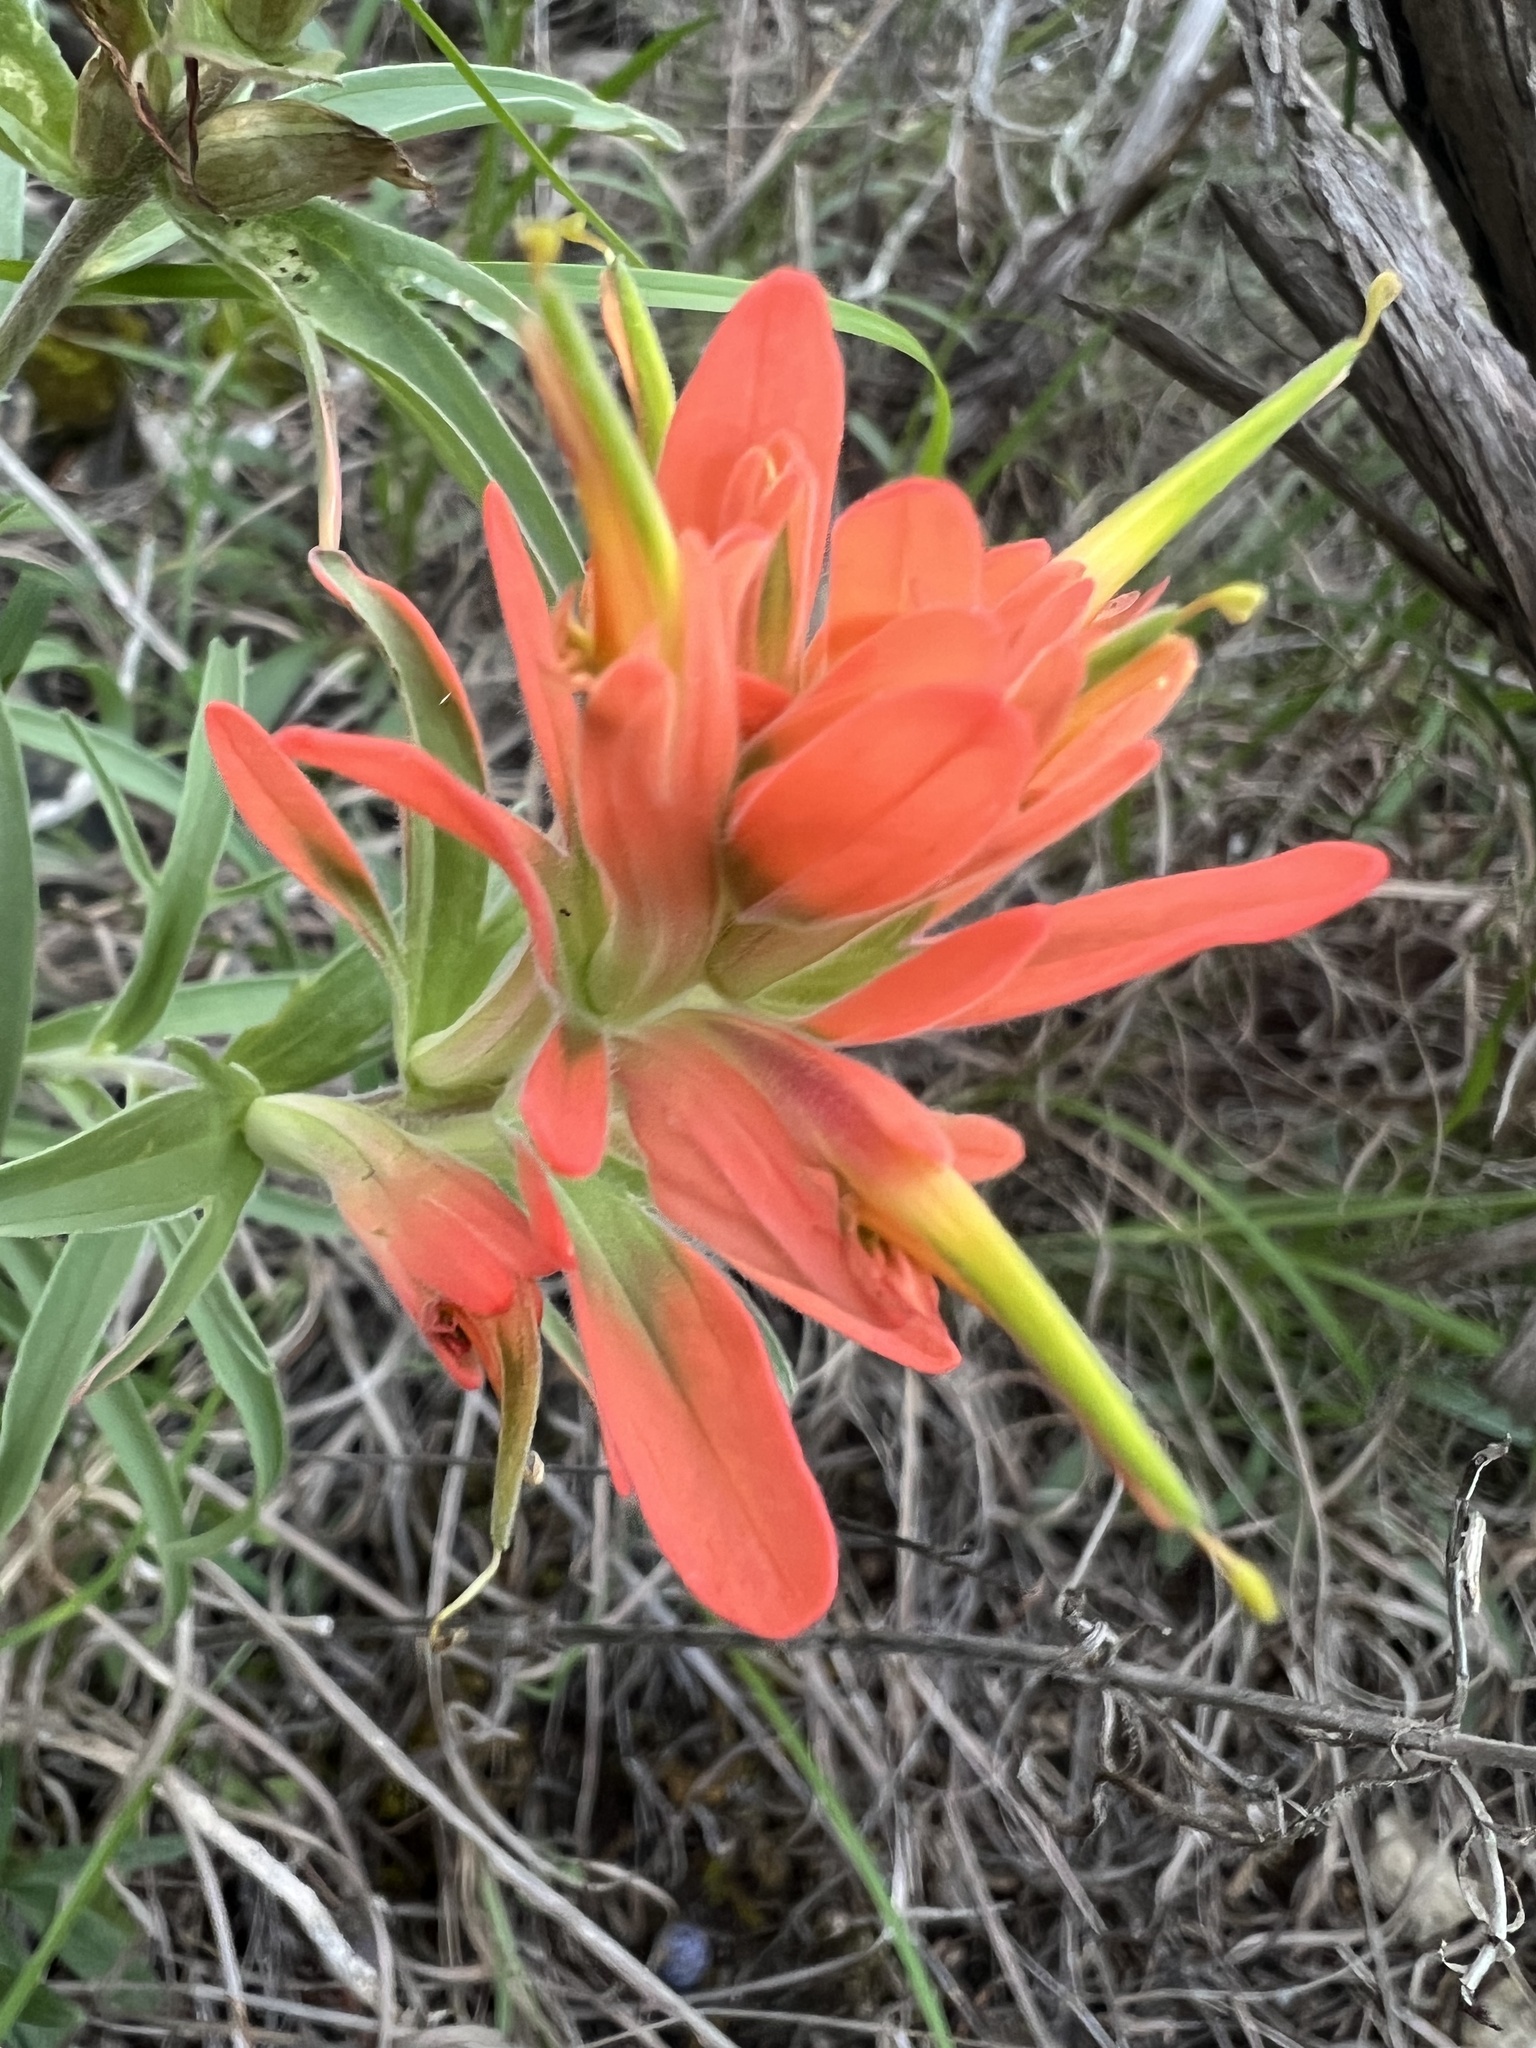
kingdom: Plantae
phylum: Tracheophyta
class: Magnoliopsida
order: Lamiales
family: Orobanchaceae
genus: Castilleja
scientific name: Castilleja lindheimeri
